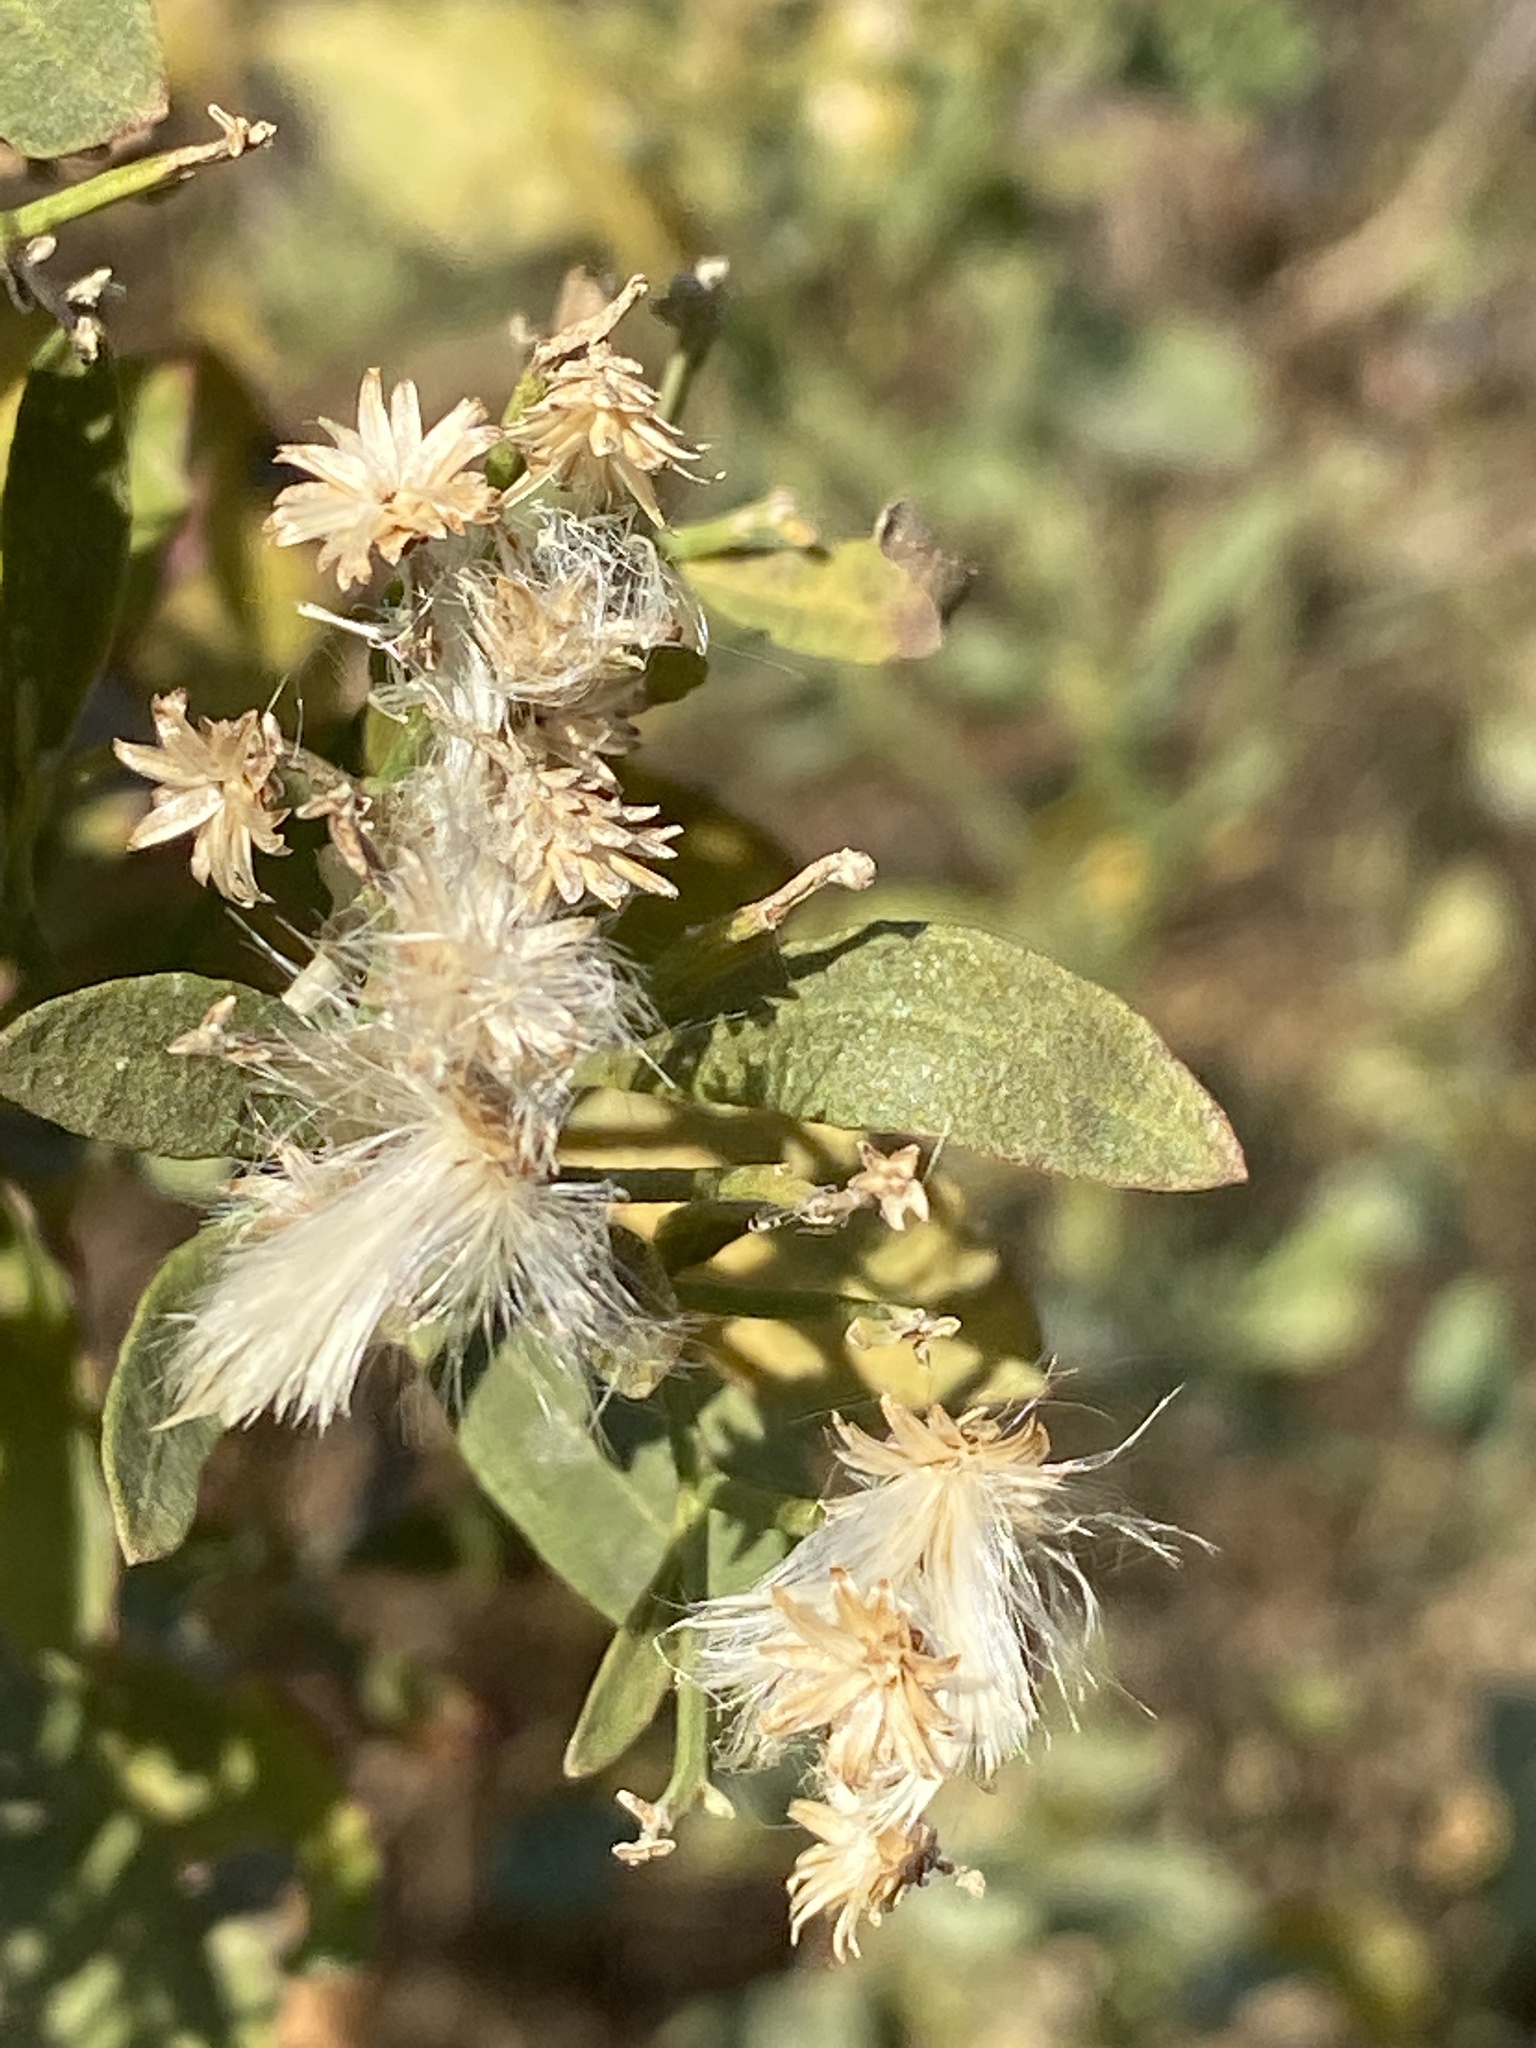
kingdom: Plantae
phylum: Tracheophyta
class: Magnoliopsida
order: Asterales
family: Asteraceae
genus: Baccharis
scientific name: Baccharis halimifolia
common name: Eastern baccharis
